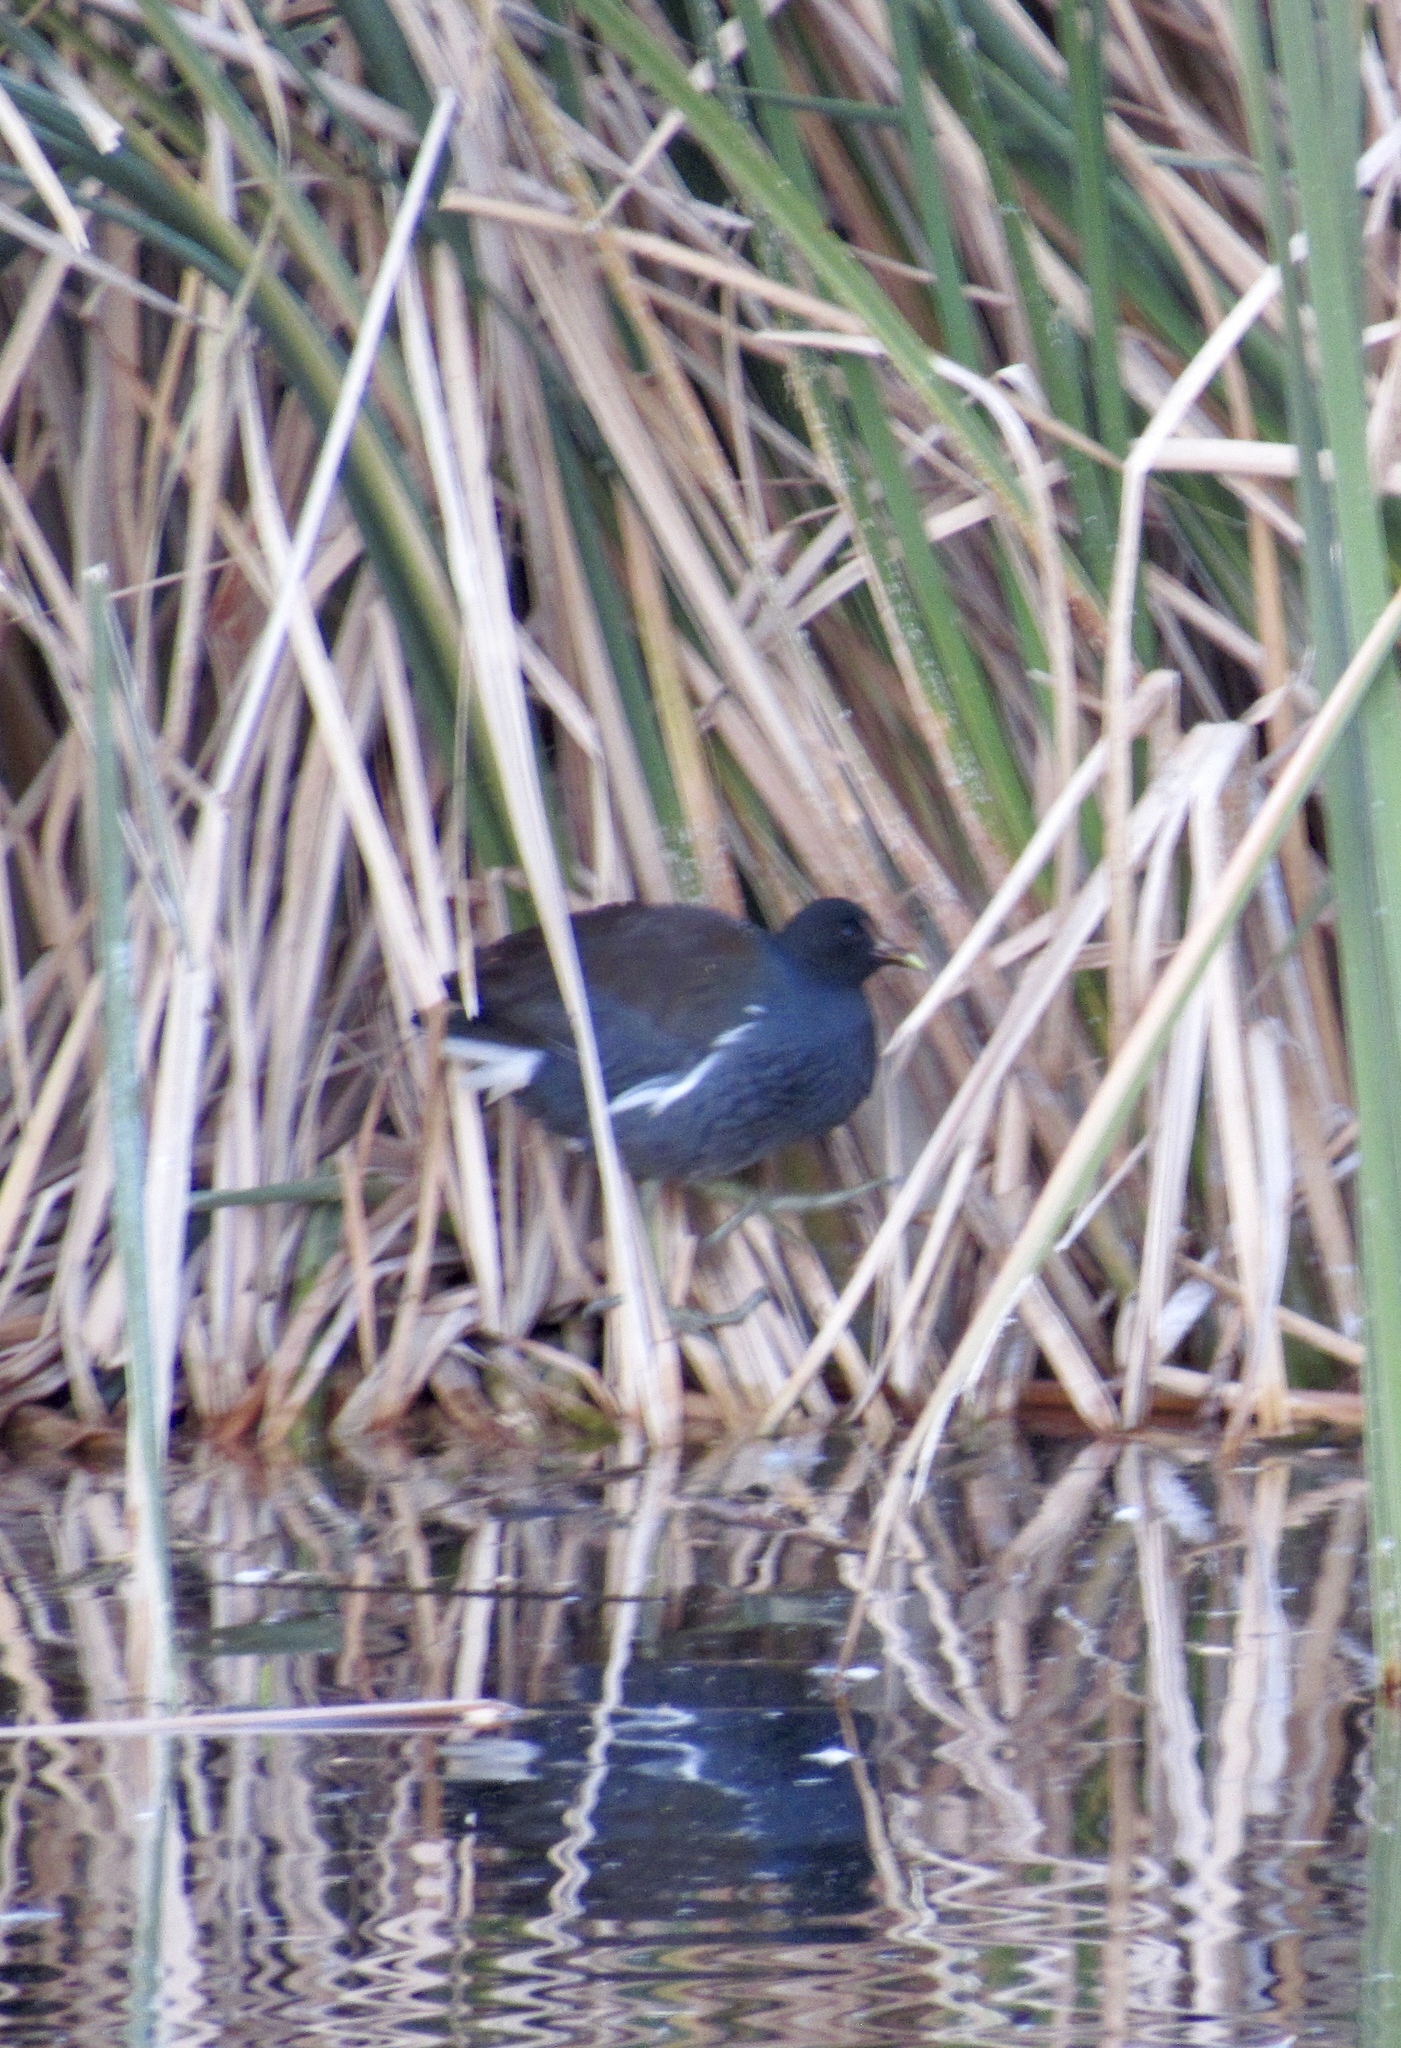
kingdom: Animalia
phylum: Chordata
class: Aves
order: Gruiformes
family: Rallidae
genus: Gallinula
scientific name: Gallinula chloropus
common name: Common moorhen
